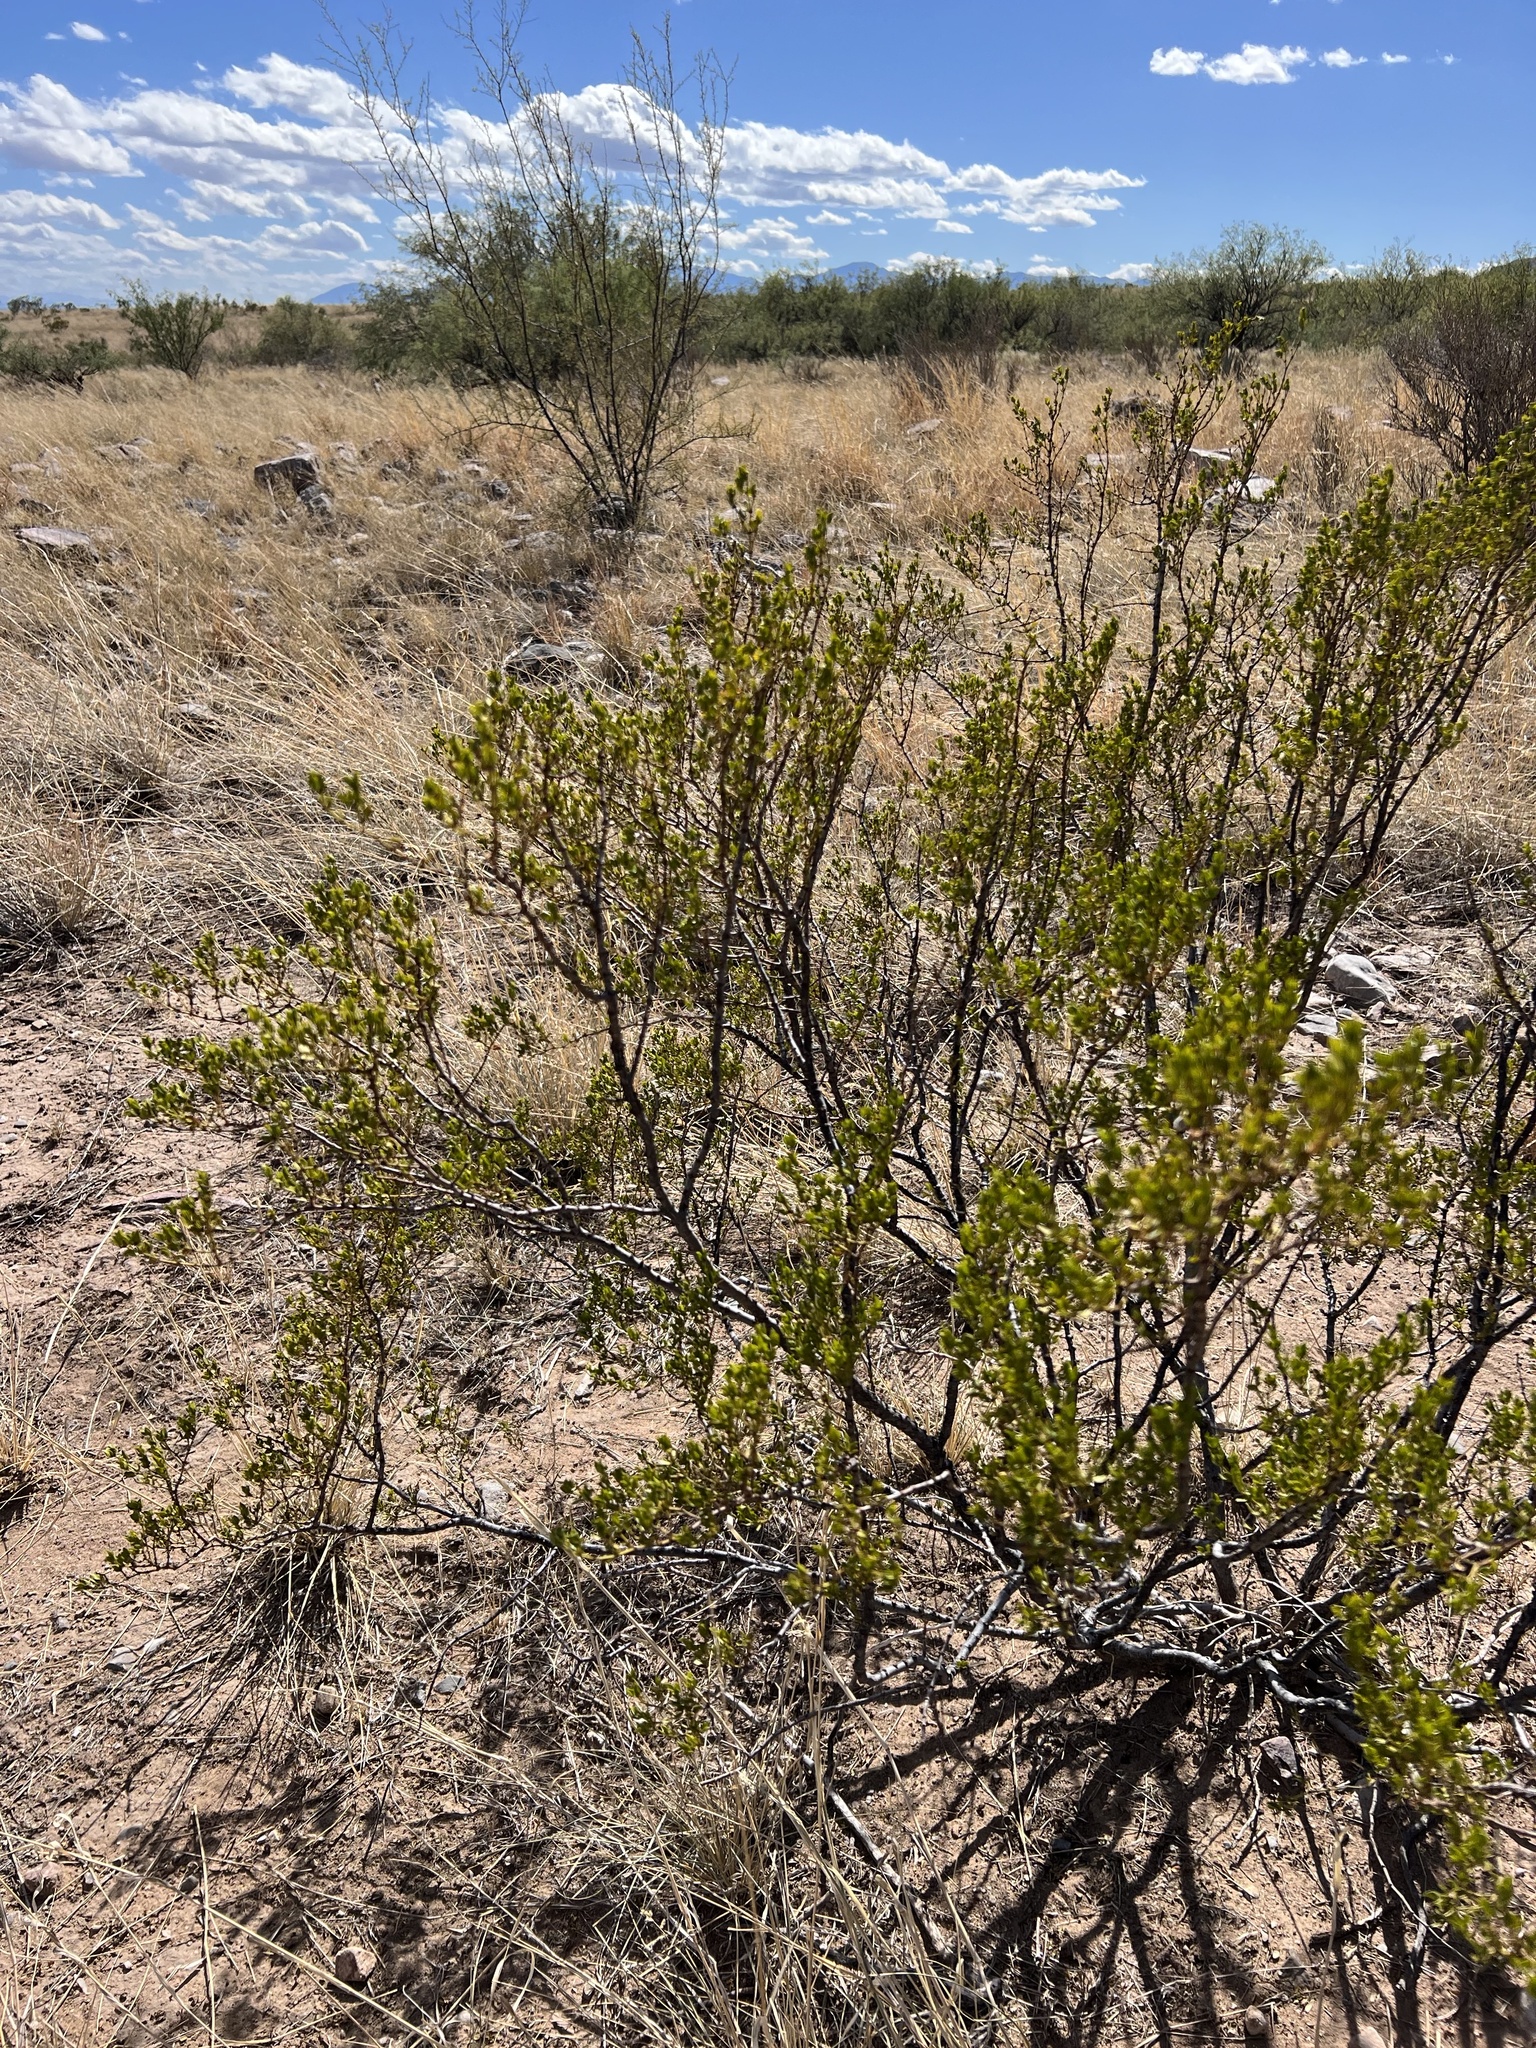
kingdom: Plantae
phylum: Tracheophyta
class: Magnoliopsida
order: Zygophyllales
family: Zygophyllaceae
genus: Larrea
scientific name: Larrea tridentata
